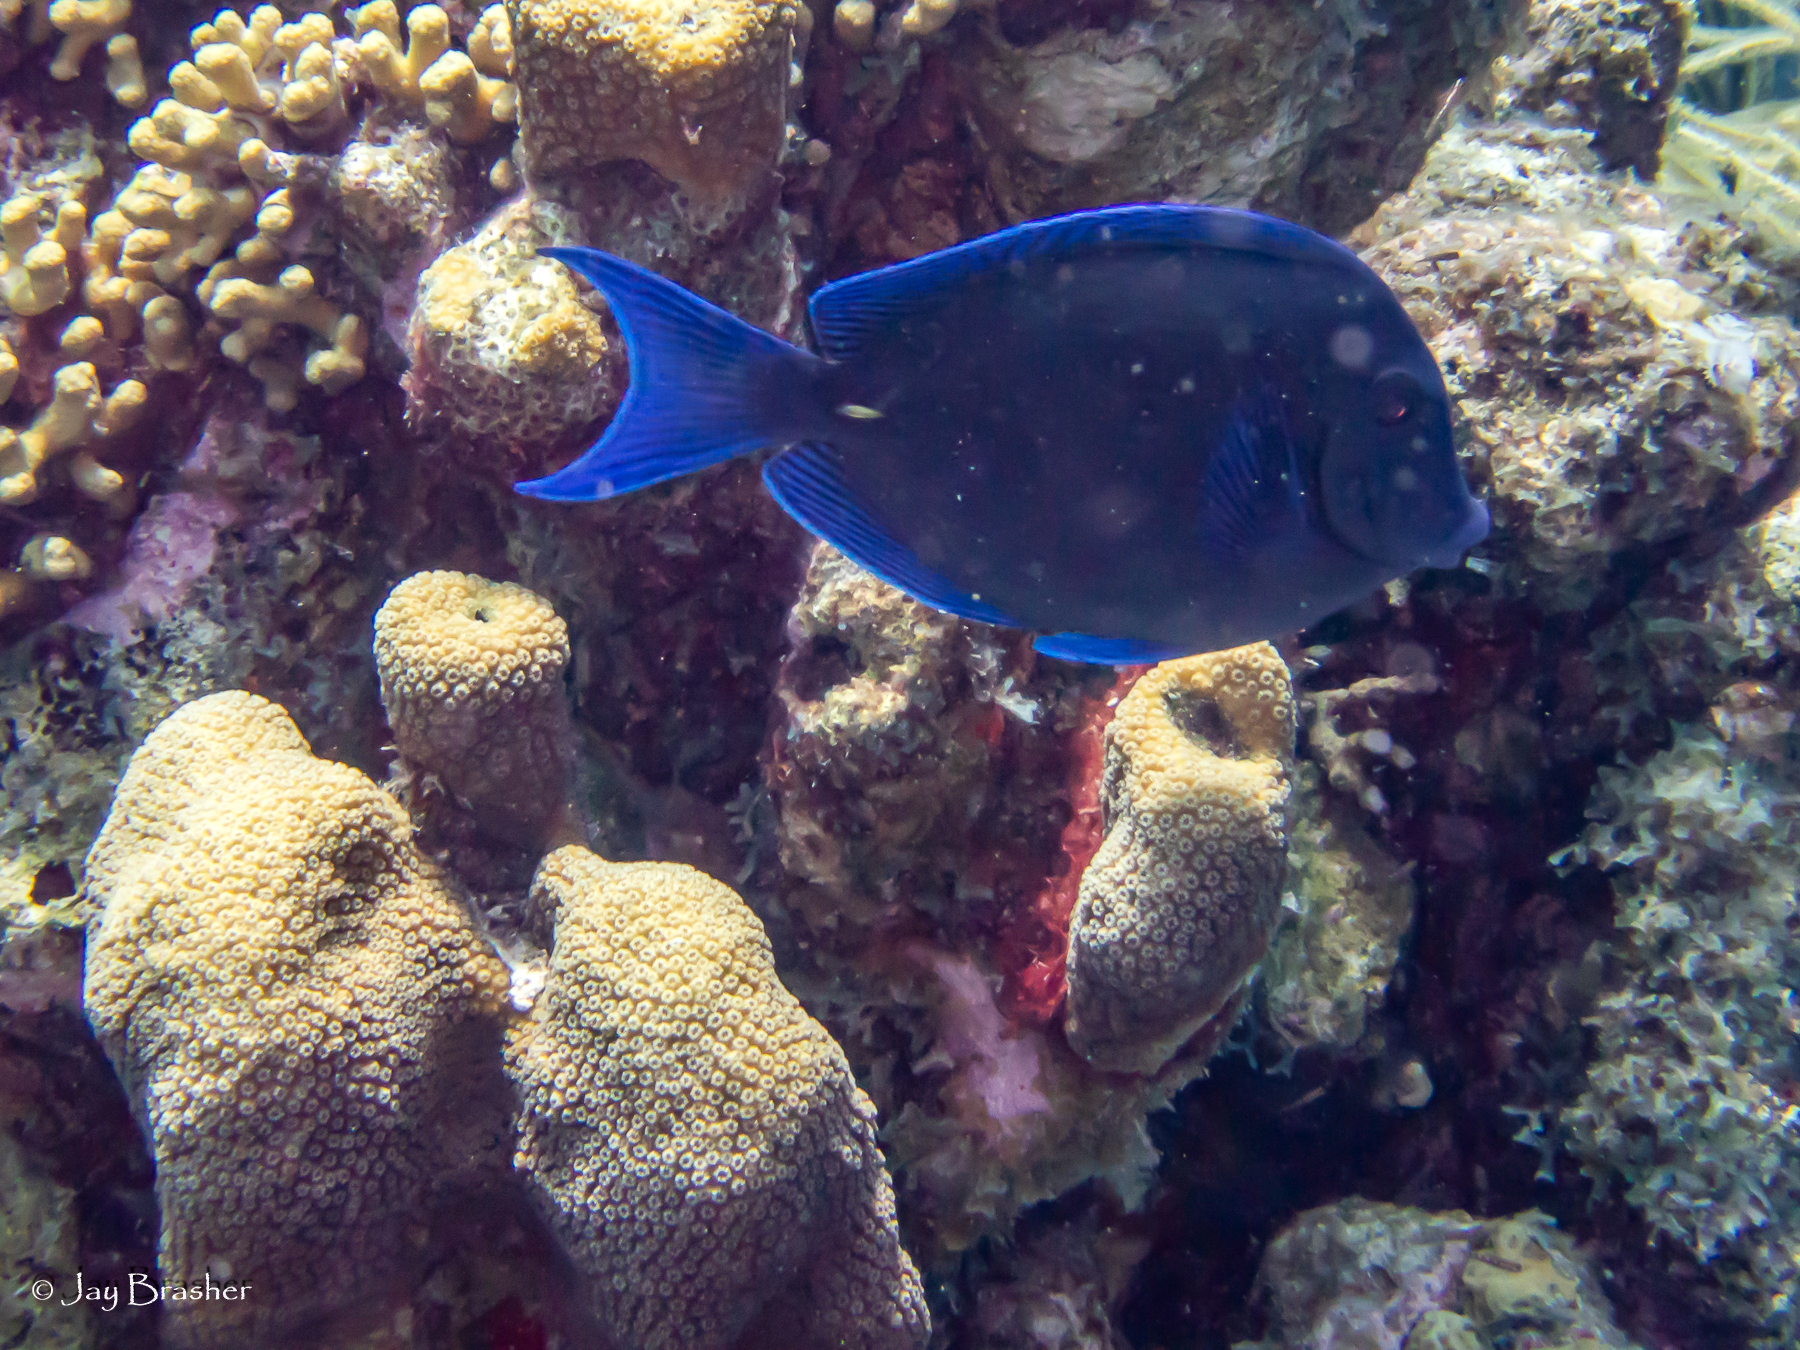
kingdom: Animalia
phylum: Chordata
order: Perciformes
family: Acanthuridae
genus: Acanthurus
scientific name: Acanthurus coeruleus
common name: Blue tang
